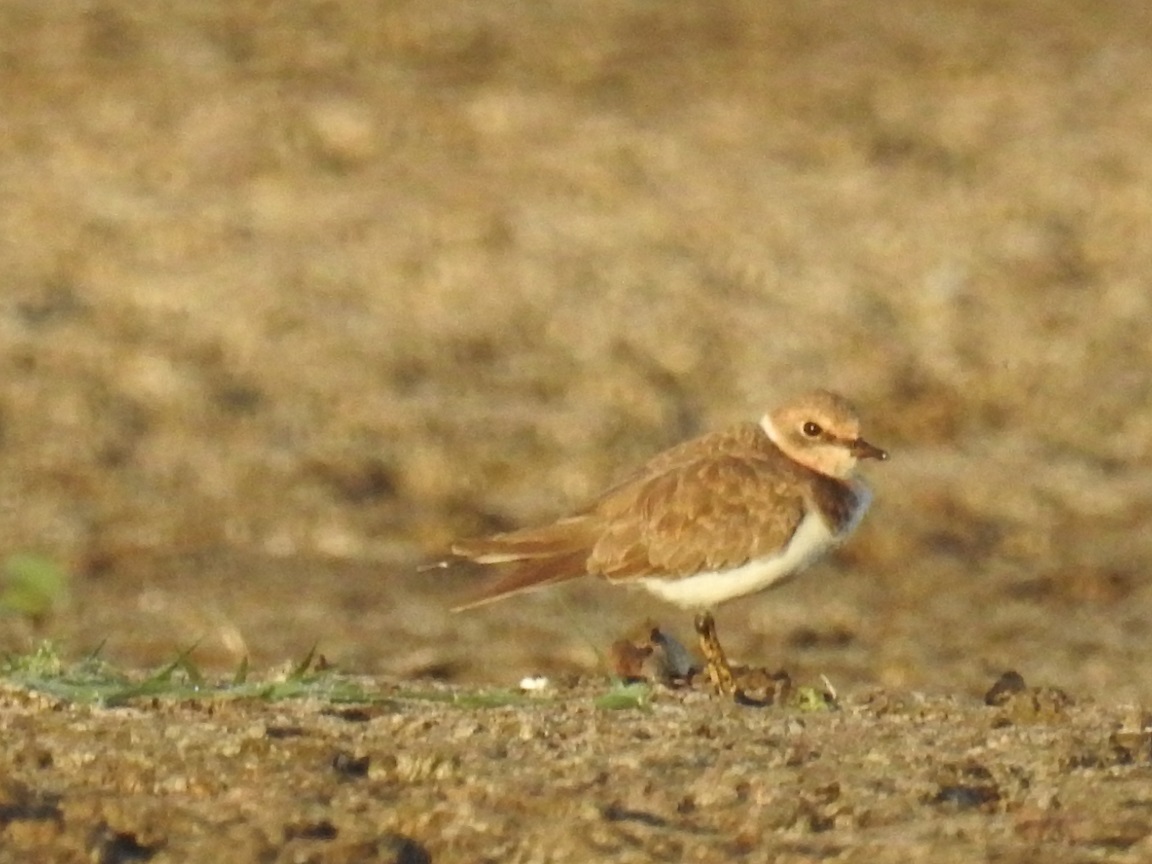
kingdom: Animalia
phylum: Chordata
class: Aves
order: Charadriiformes
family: Charadriidae
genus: Charadrius
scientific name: Charadrius dubius
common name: Little ringed plover
